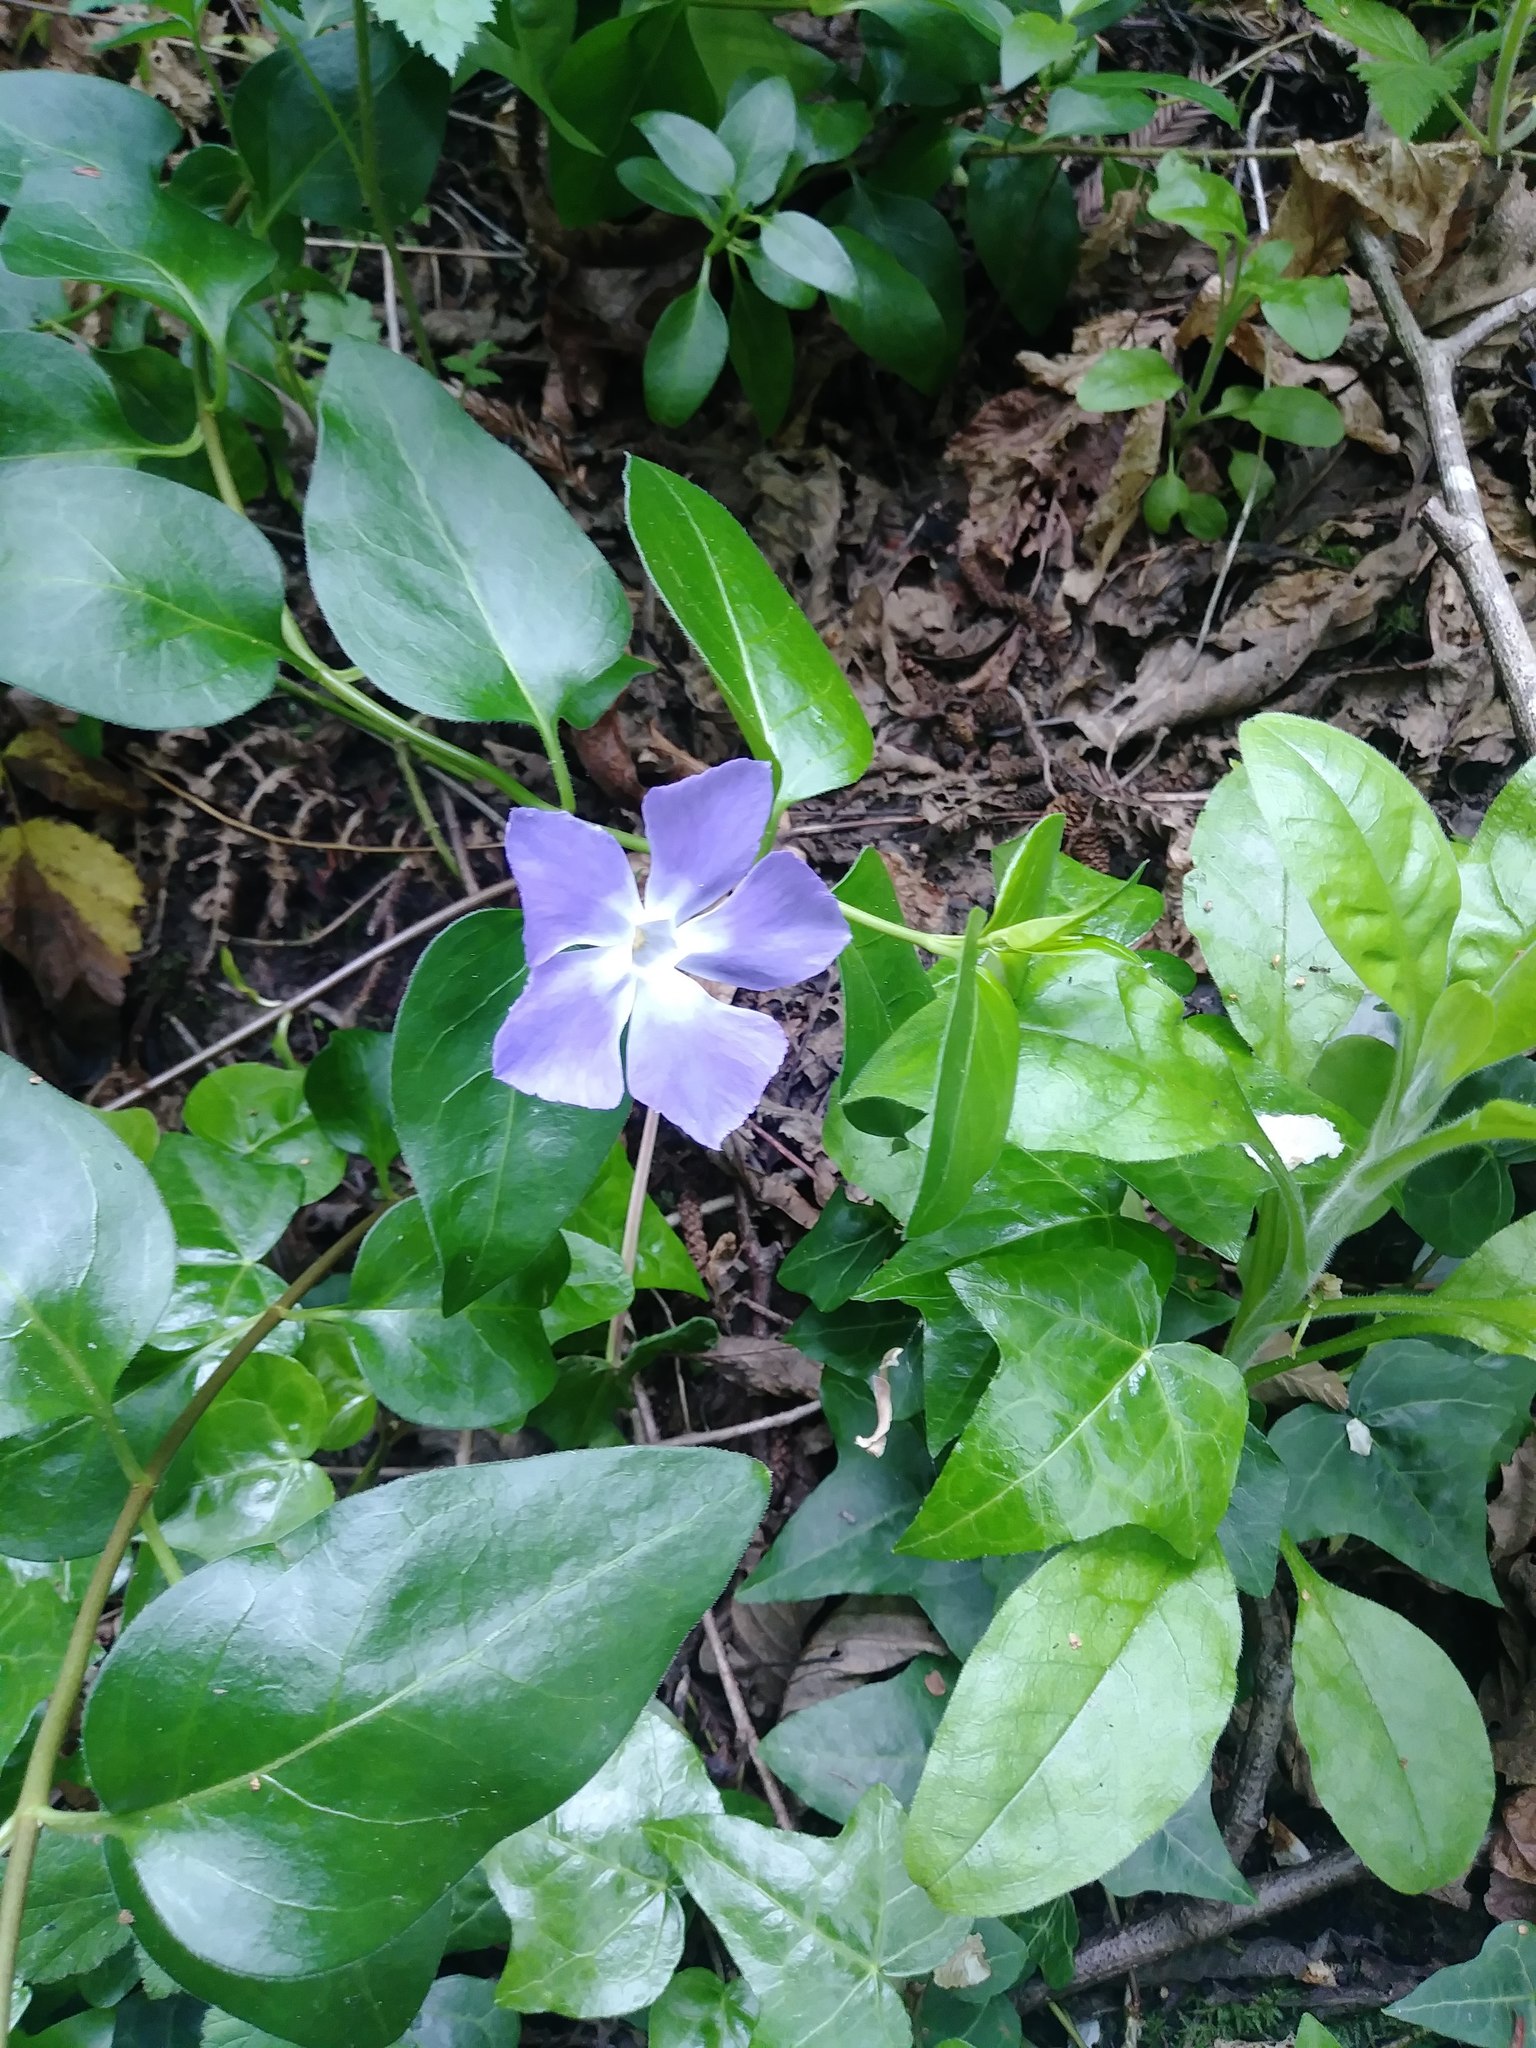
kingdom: Plantae
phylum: Tracheophyta
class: Magnoliopsida
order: Gentianales
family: Apocynaceae
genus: Vinca
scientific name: Vinca major
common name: Greater periwinkle
